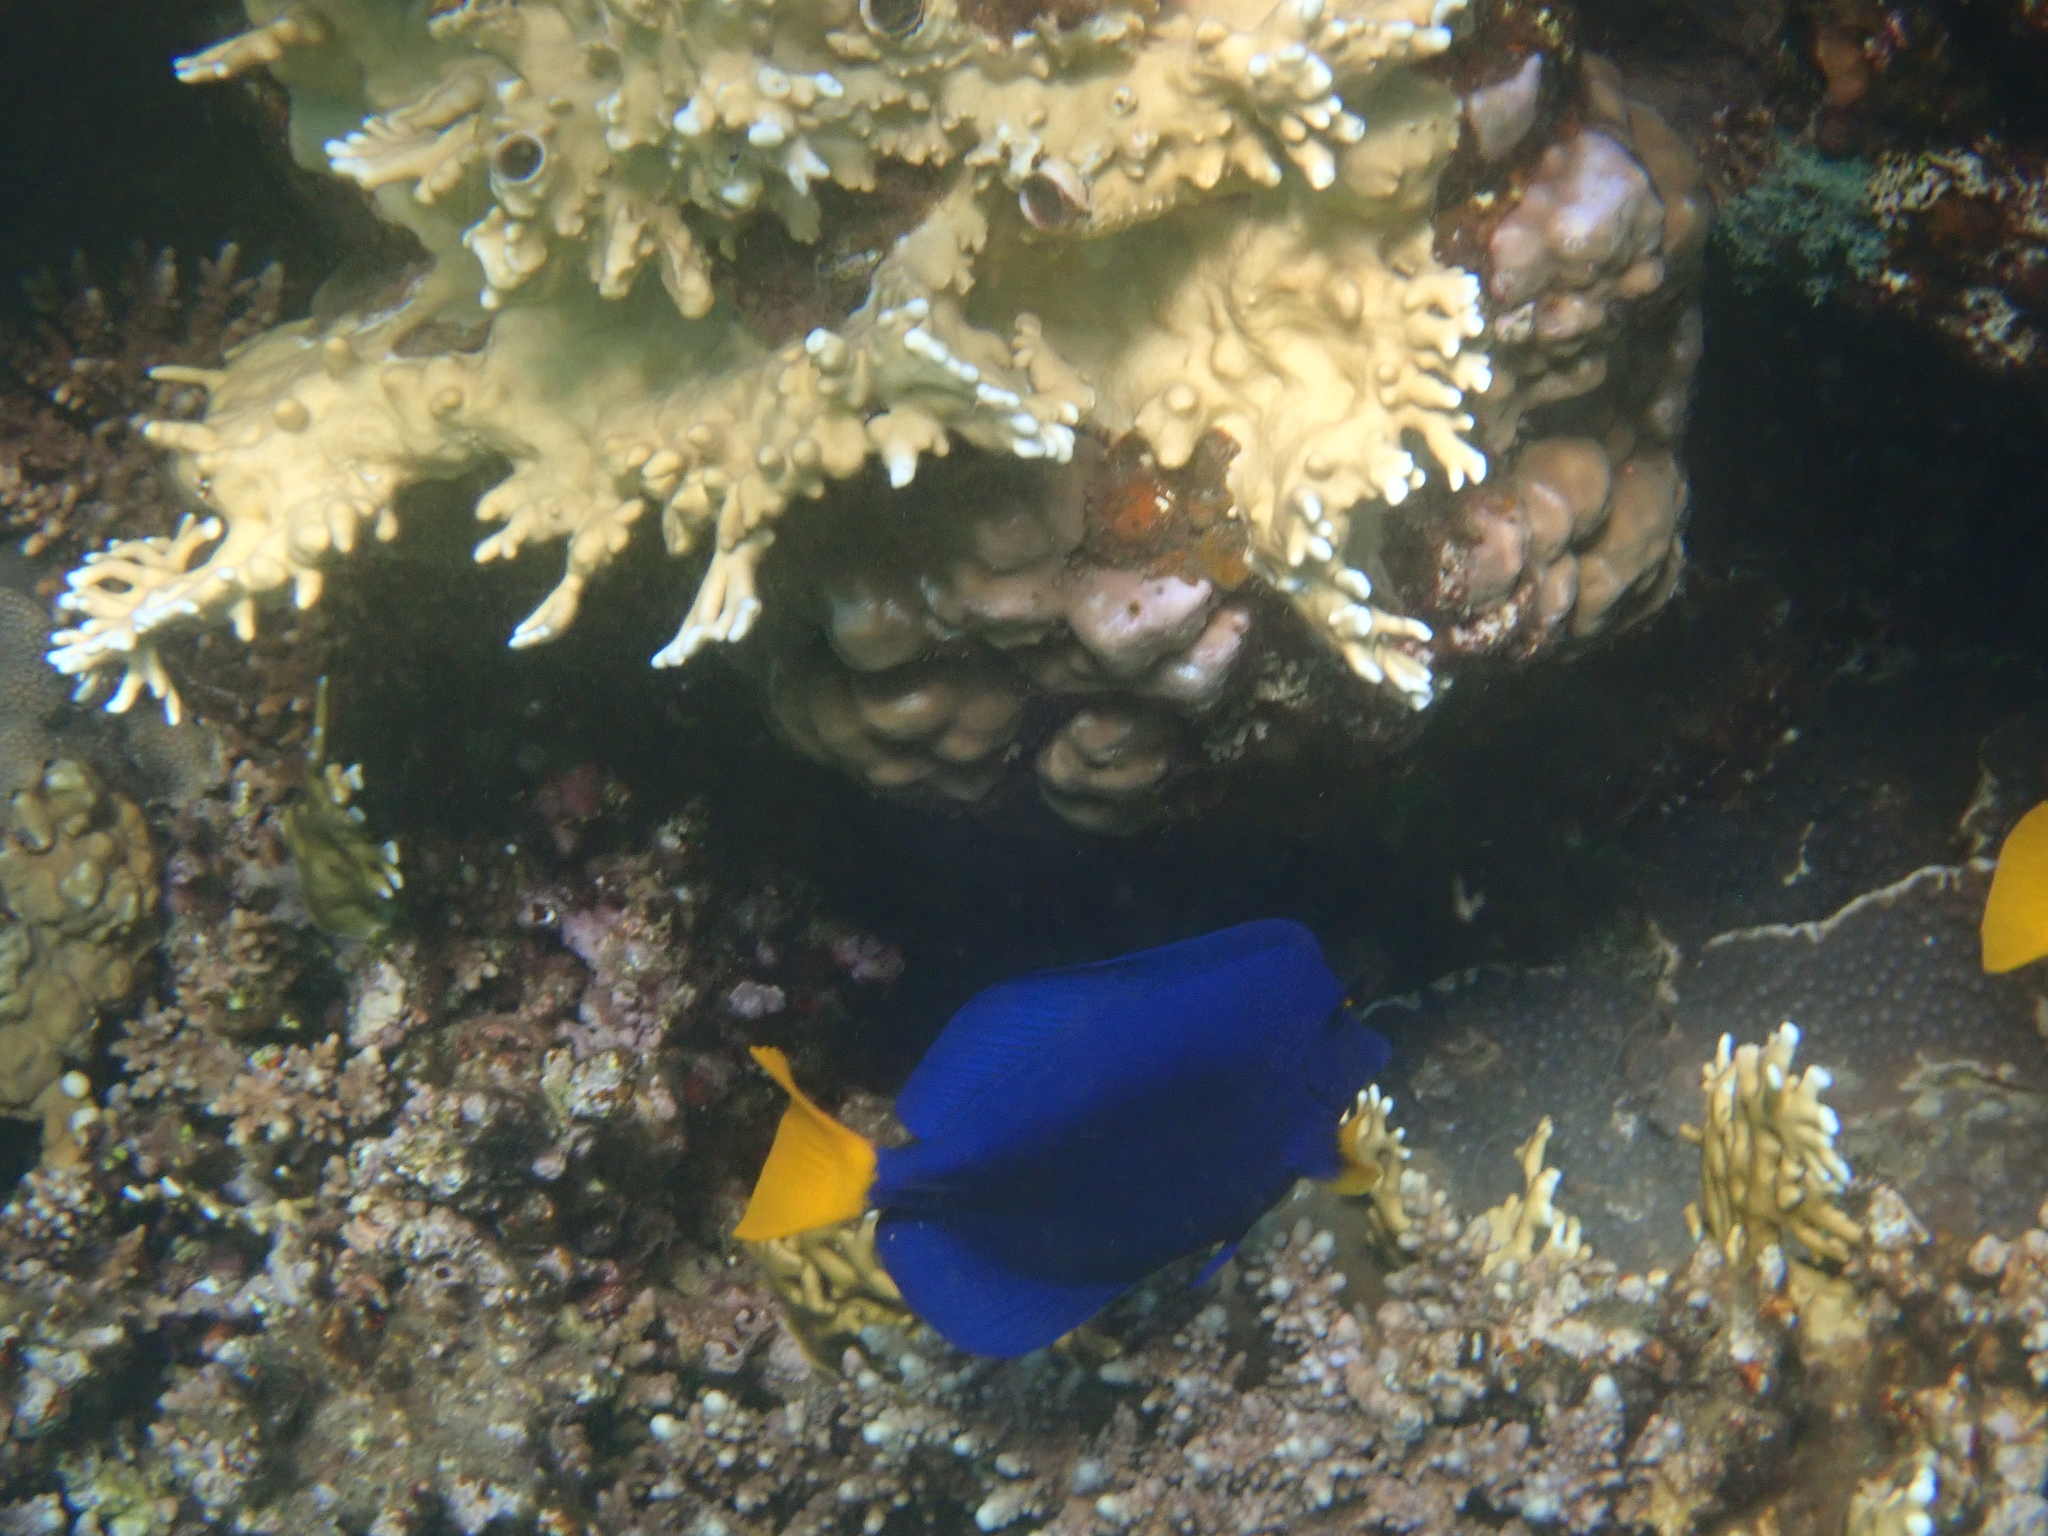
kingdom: Animalia
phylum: Chordata
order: Perciformes
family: Acanthuridae
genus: Zebrasoma
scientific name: Zebrasoma xanthurum
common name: Purple tang
